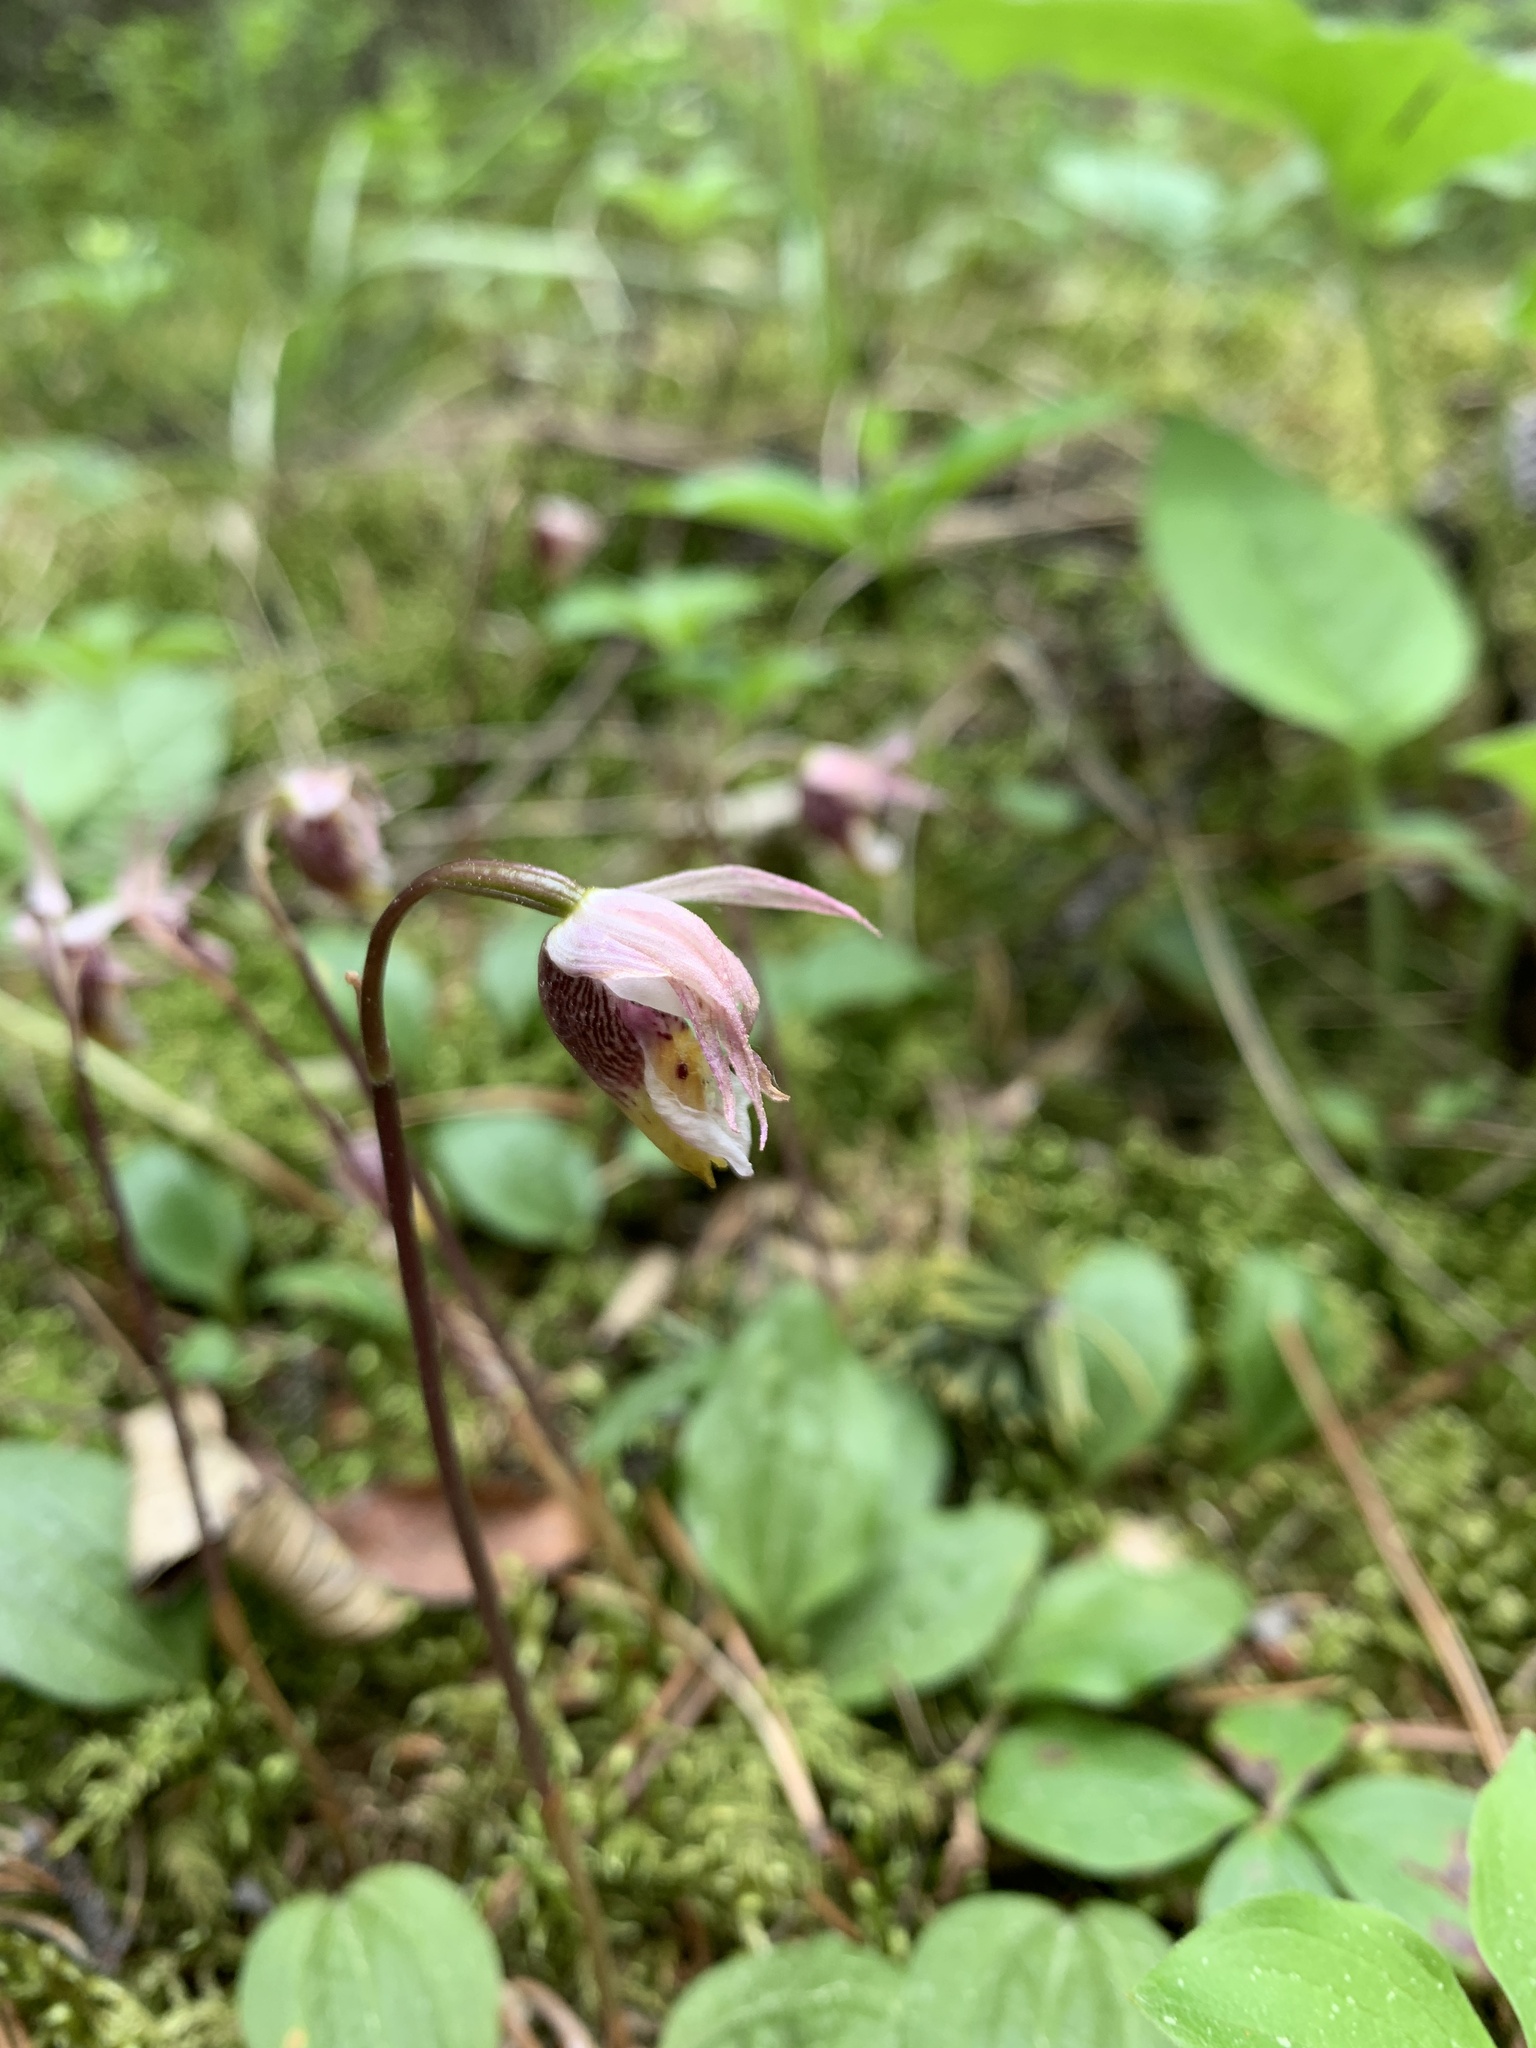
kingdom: Plantae
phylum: Tracheophyta
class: Liliopsida
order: Asparagales
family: Orchidaceae
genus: Calypso
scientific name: Calypso bulbosa
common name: Calypso
